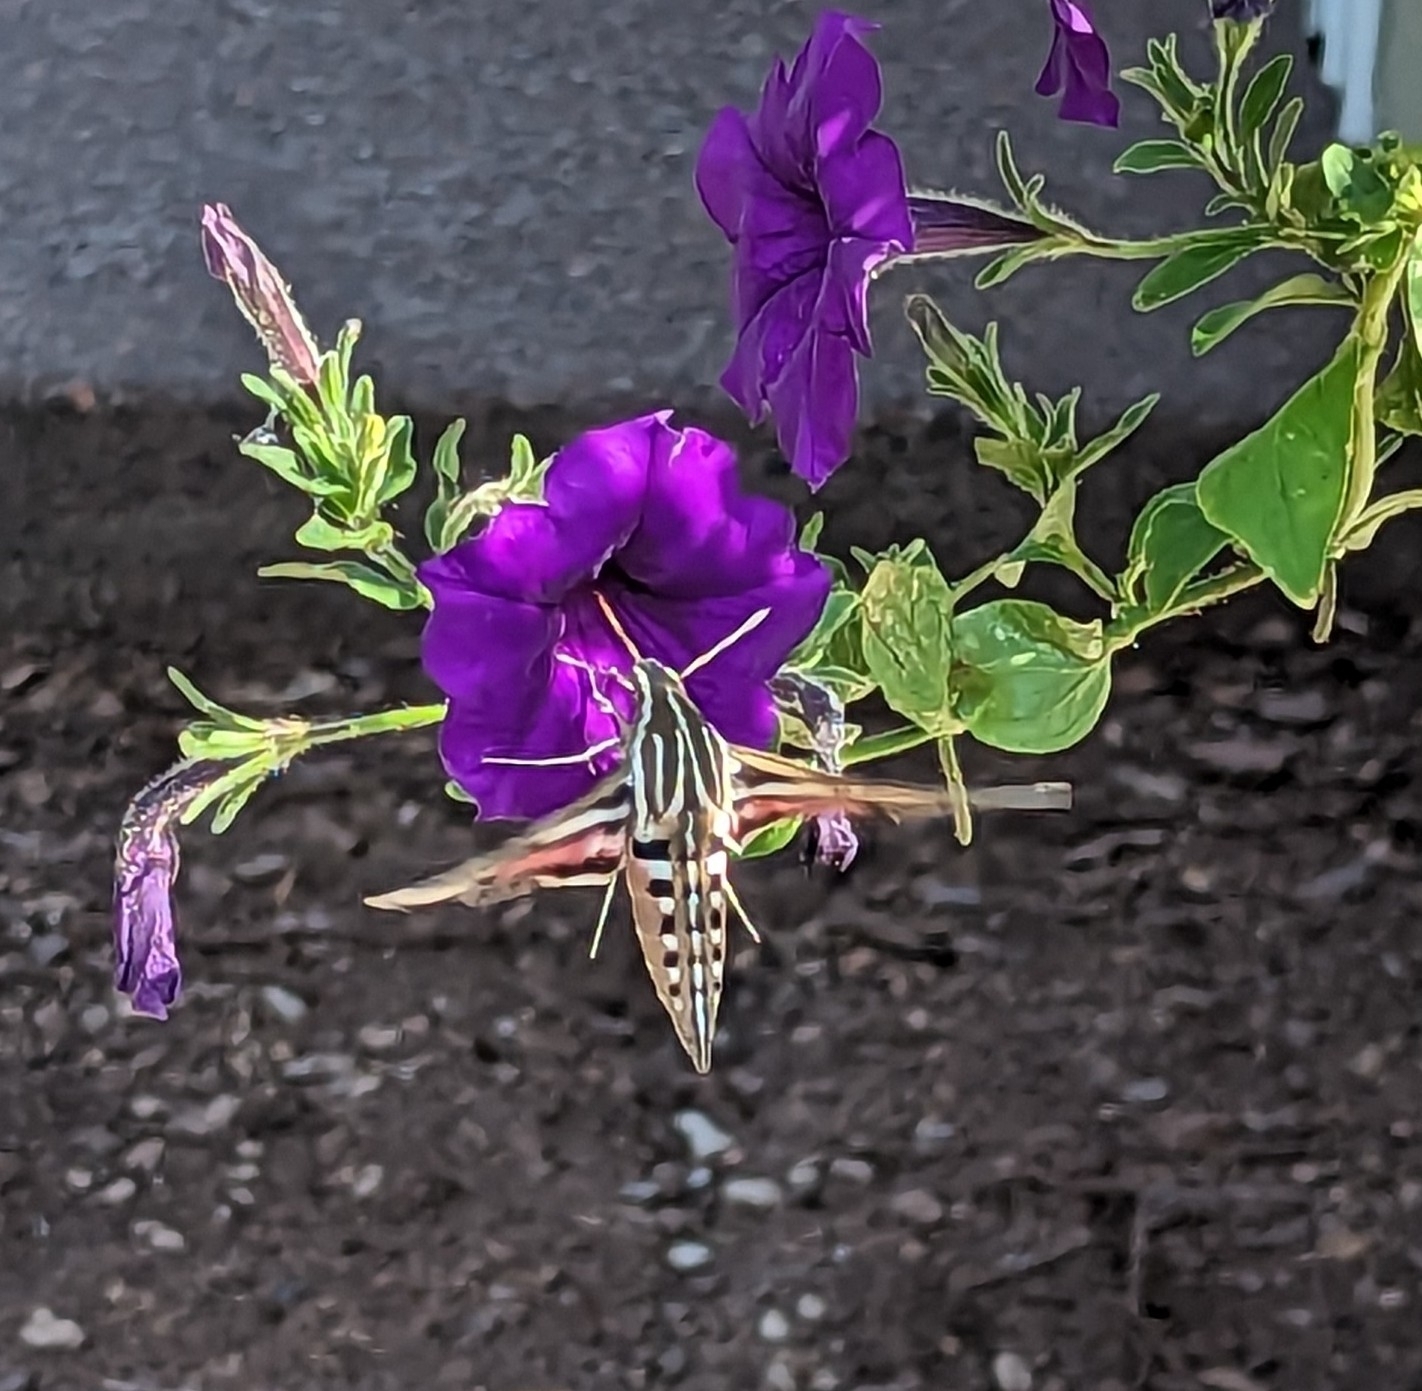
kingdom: Animalia
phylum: Arthropoda
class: Insecta
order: Lepidoptera
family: Sphingidae
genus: Hyles
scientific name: Hyles lineata
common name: White-lined sphinx
